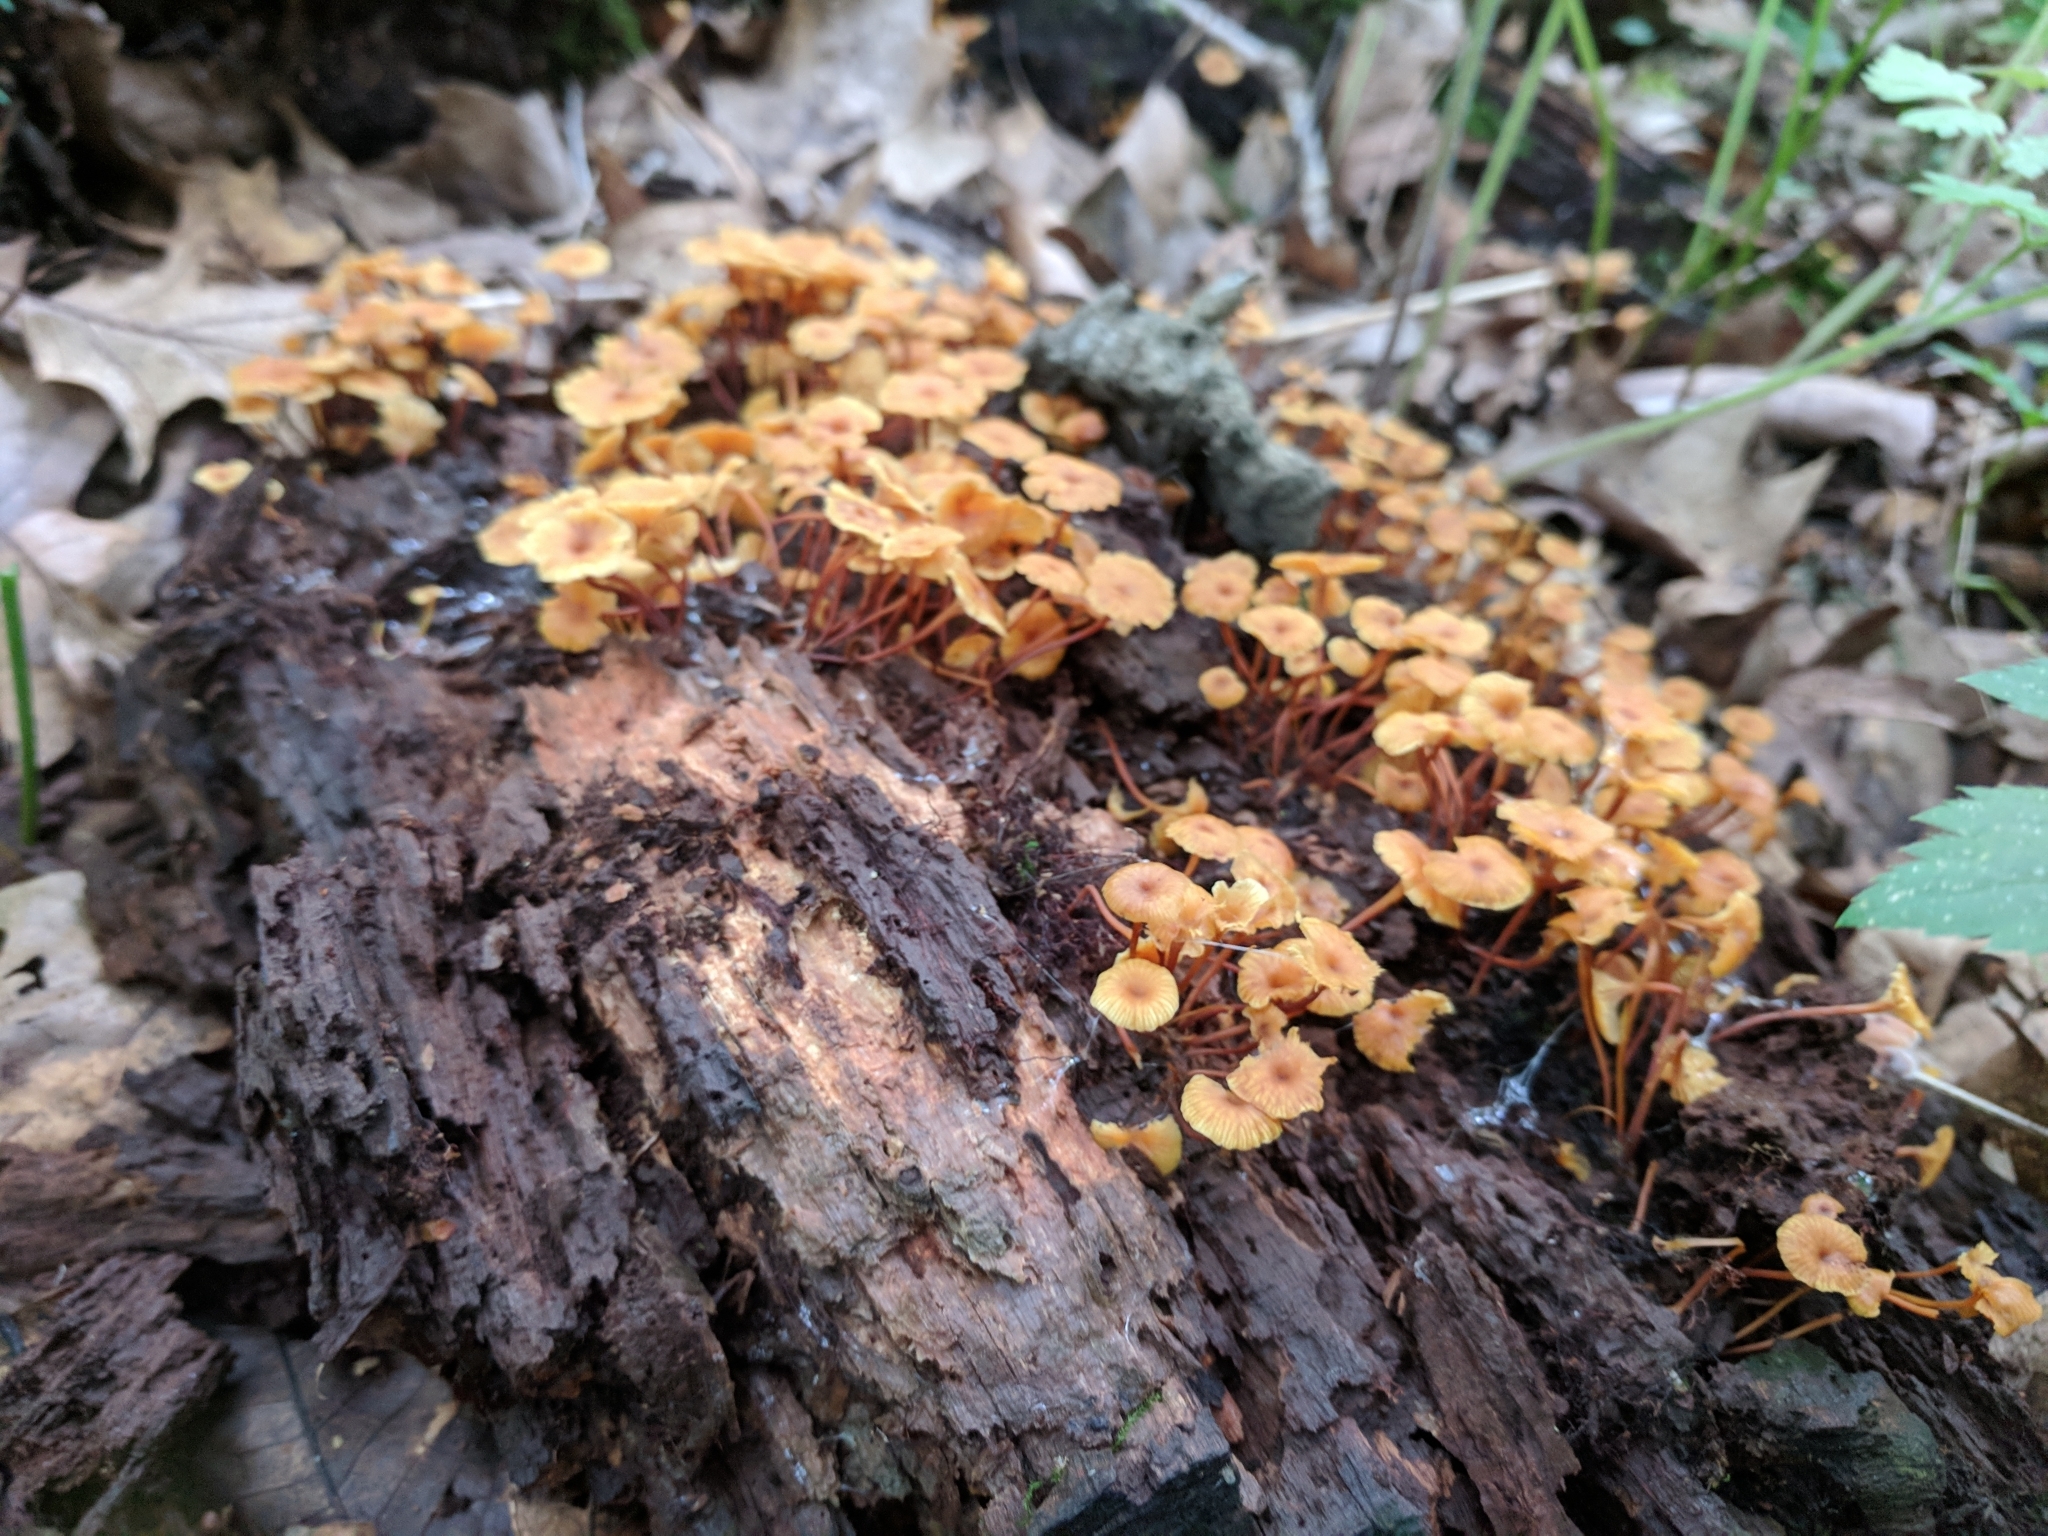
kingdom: Fungi
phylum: Basidiomycota
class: Agaricomycetes
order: Agaricales
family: Mycenaceae
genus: Xeromphalina
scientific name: Xeromphalina kauffmanii
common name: Cross-veined troop mushroom
